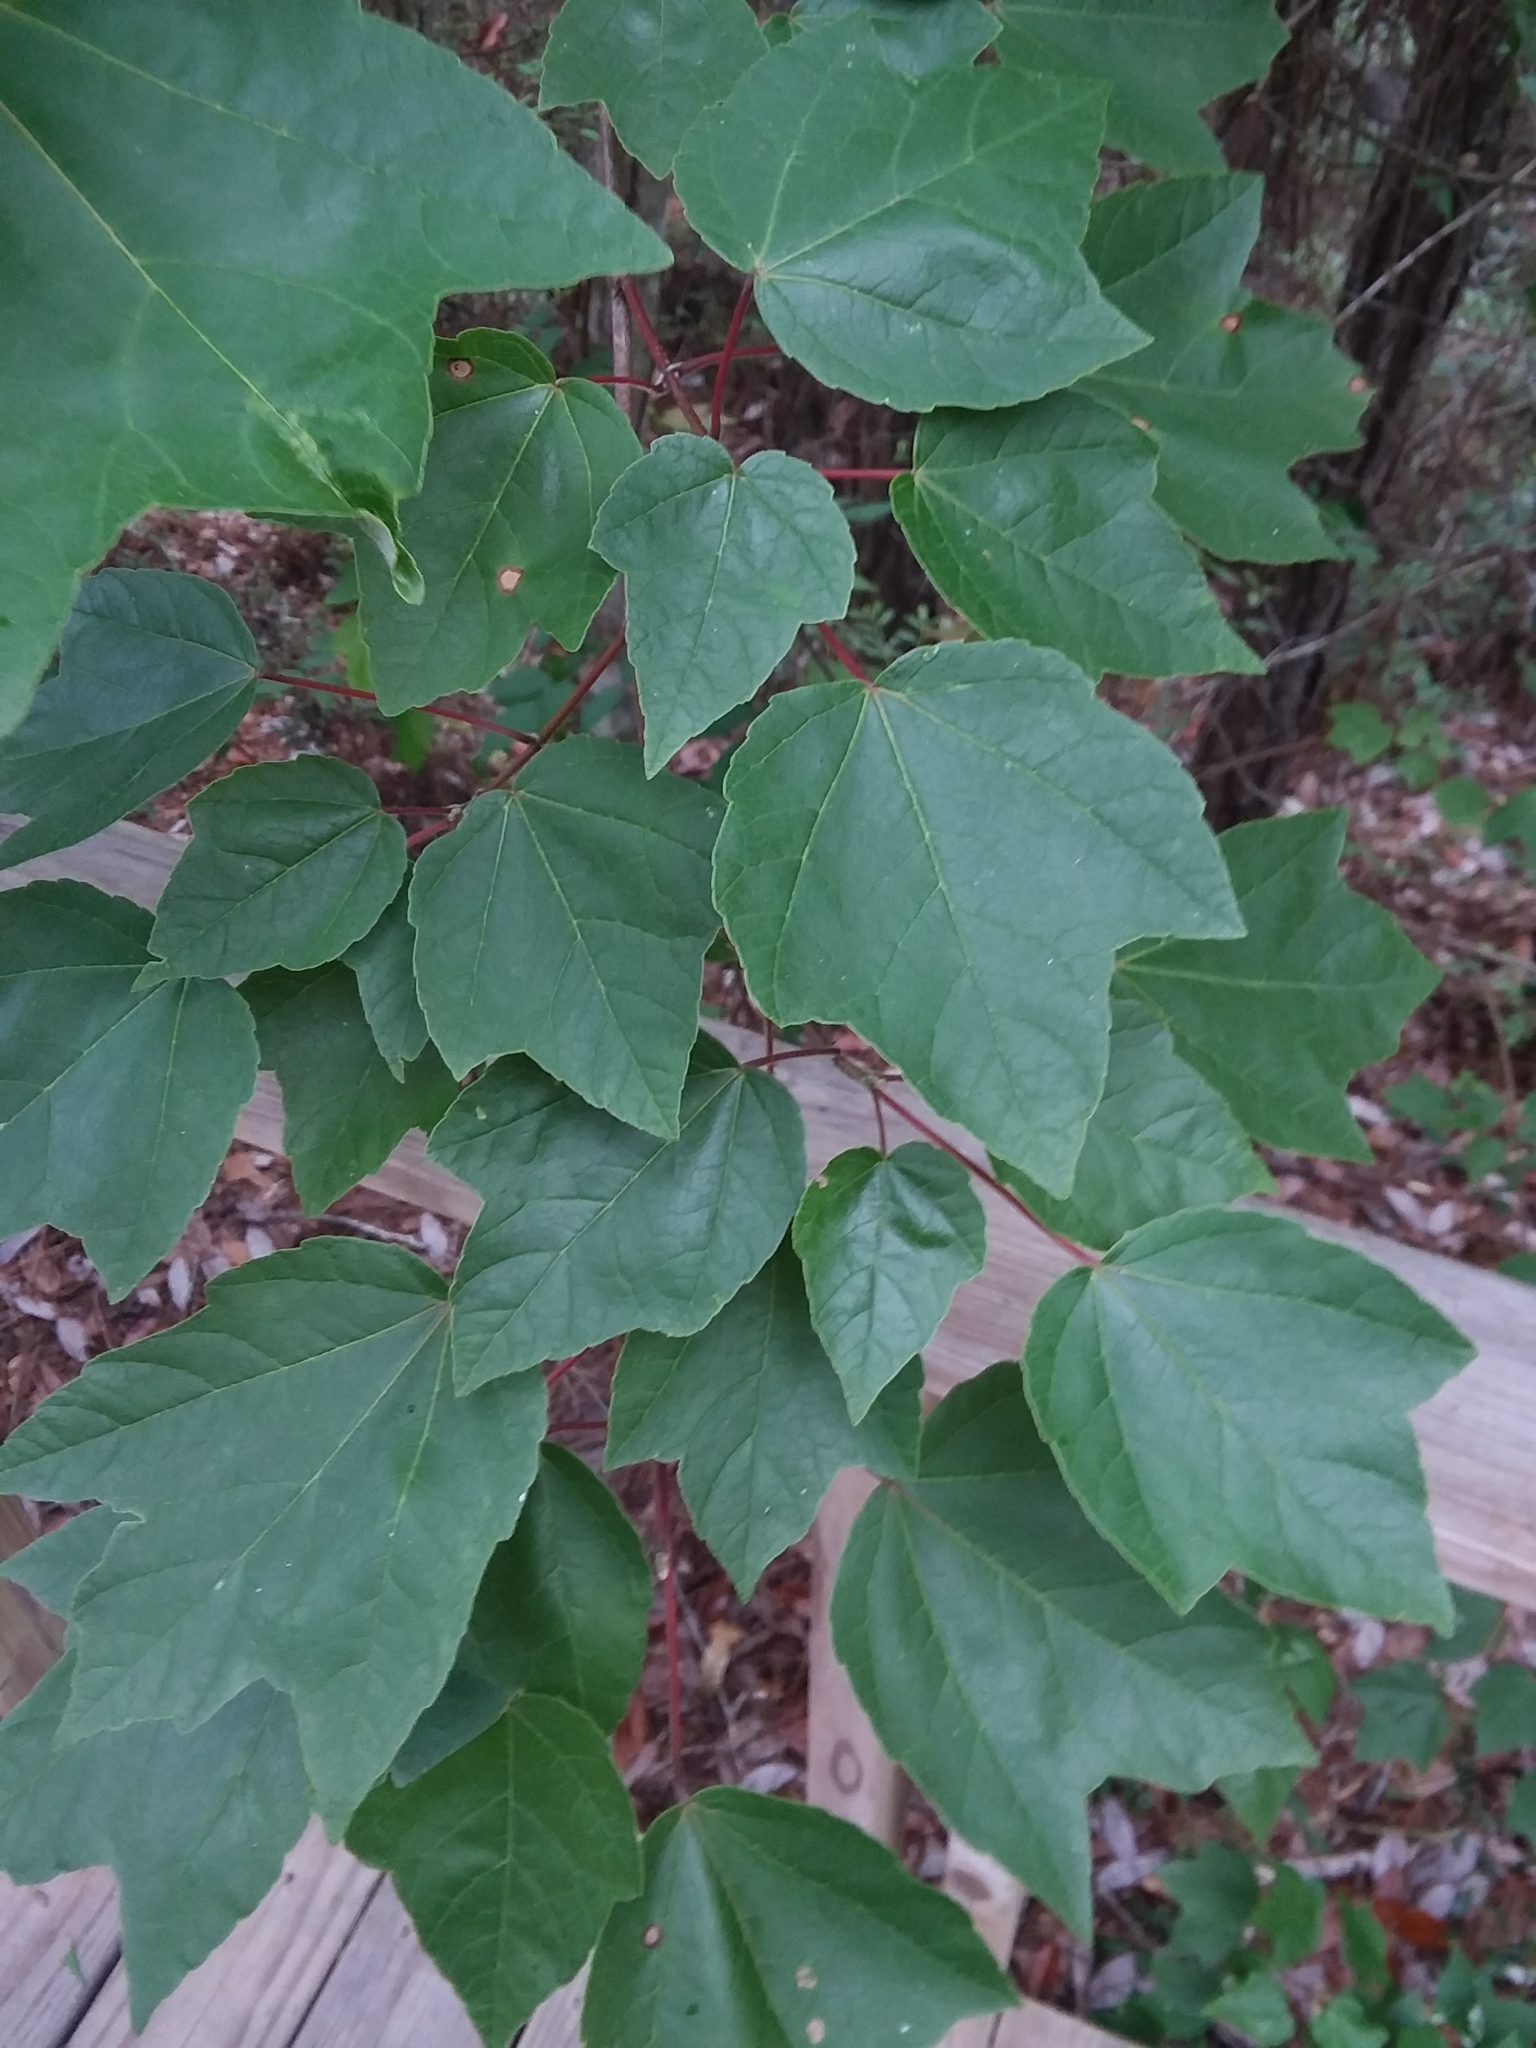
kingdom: Plantae
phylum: Tracheophyta
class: Magnoliopsida
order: Sapindales
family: Sapindaceae
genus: Acer
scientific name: Acer rubrum
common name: Red maple
